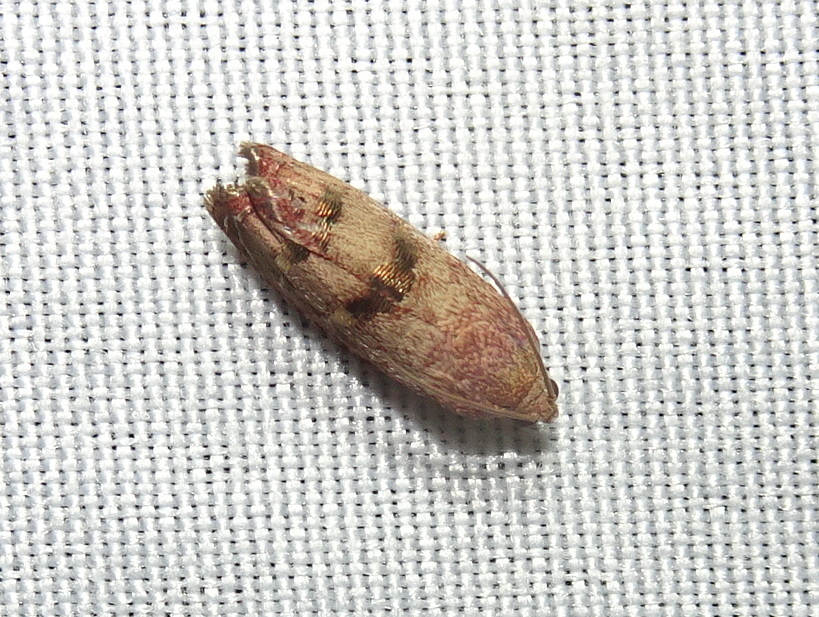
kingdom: Animalia
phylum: Arthropoda
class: Insecta
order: Lepidoptera
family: Tortricidae
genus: Cydia
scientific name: Cydia latiferreana
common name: Filbertworm moth
